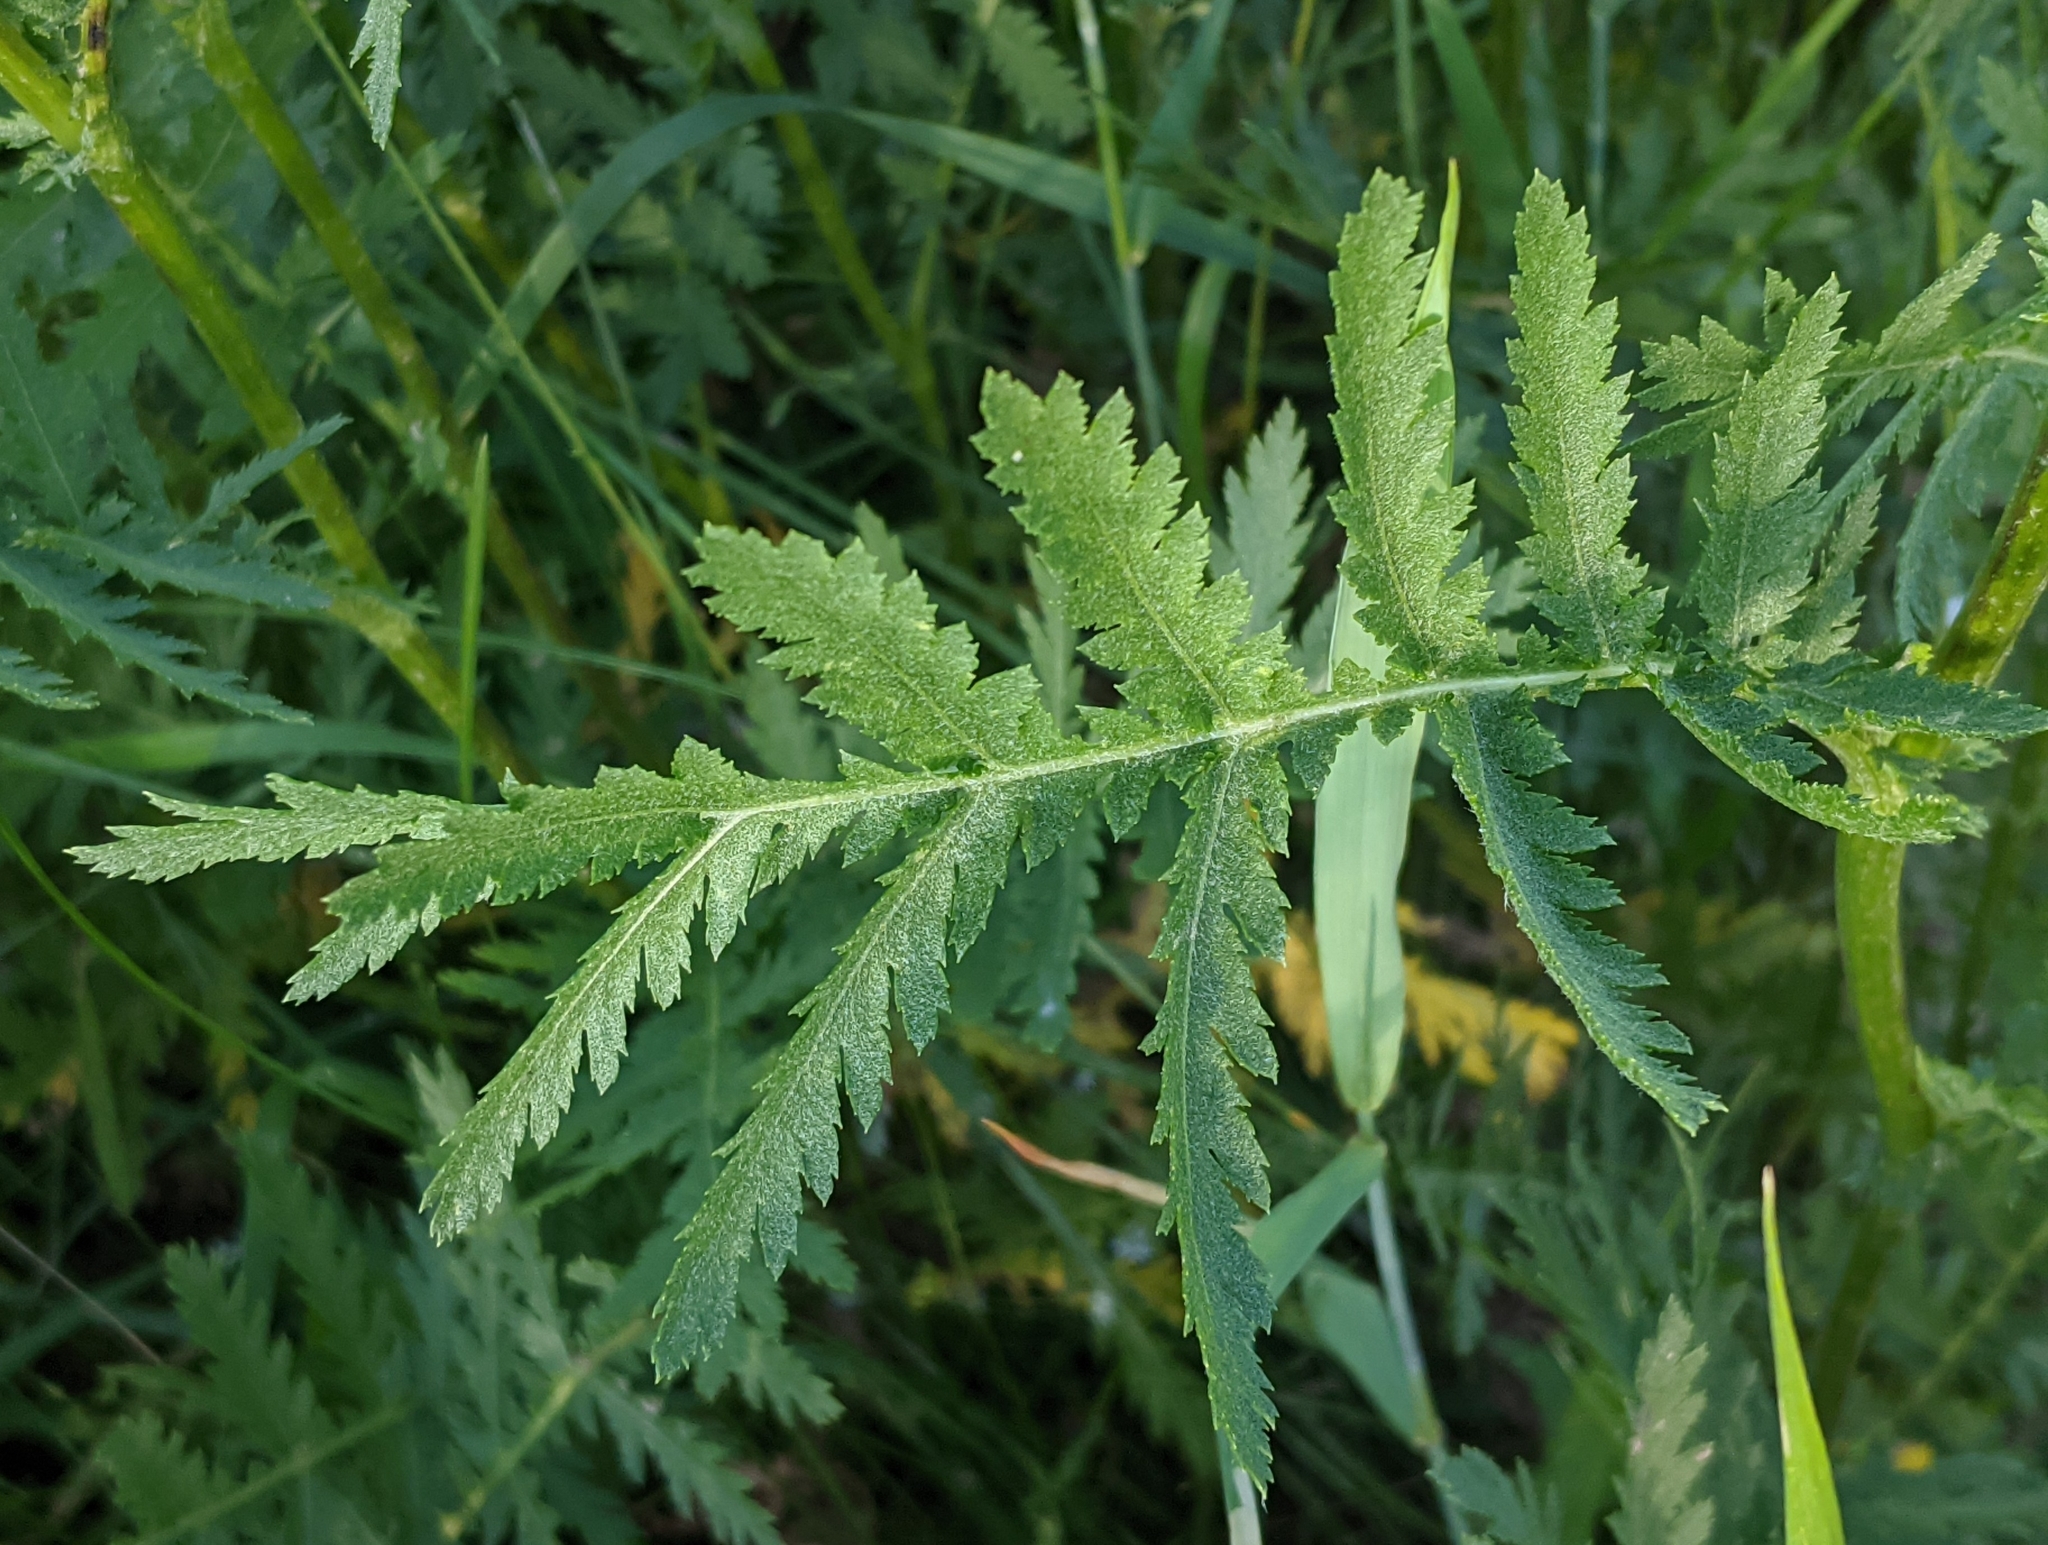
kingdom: Plantae
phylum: Tracheophyta
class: Magnoliopsida
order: Asterales
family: Asteraceae
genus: Tanacetum
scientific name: Tanacetum vulgare
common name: Common tansy
